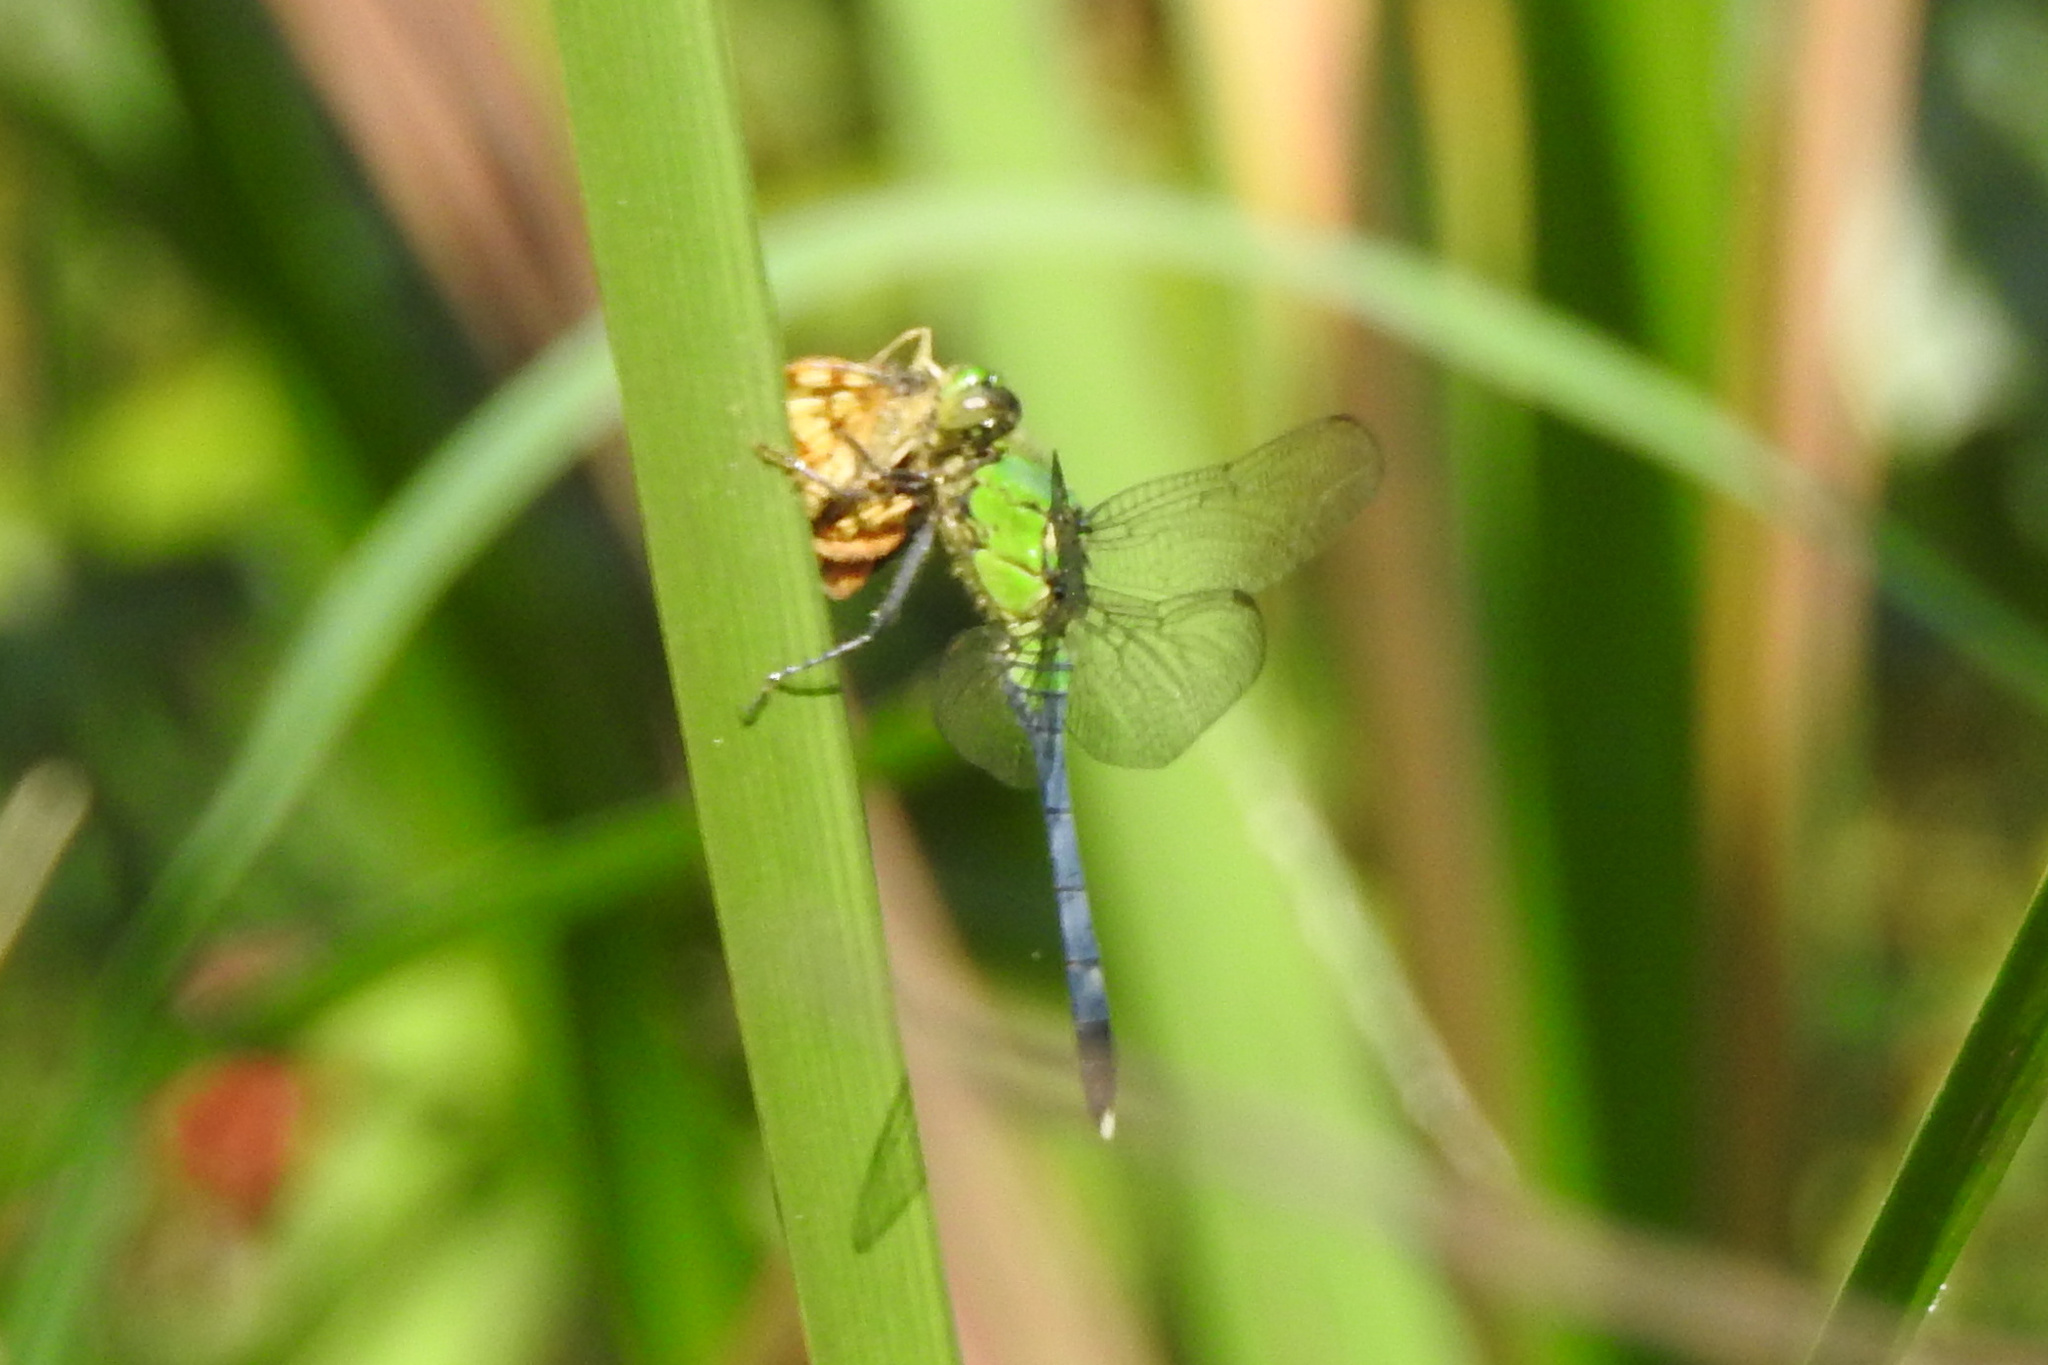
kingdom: Animalia
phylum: Arthropoda
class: Insecta
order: Odonata
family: Libellulidae
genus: Erythemis
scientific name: Erythemis simplicicollis
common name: Eastern pondhawk
